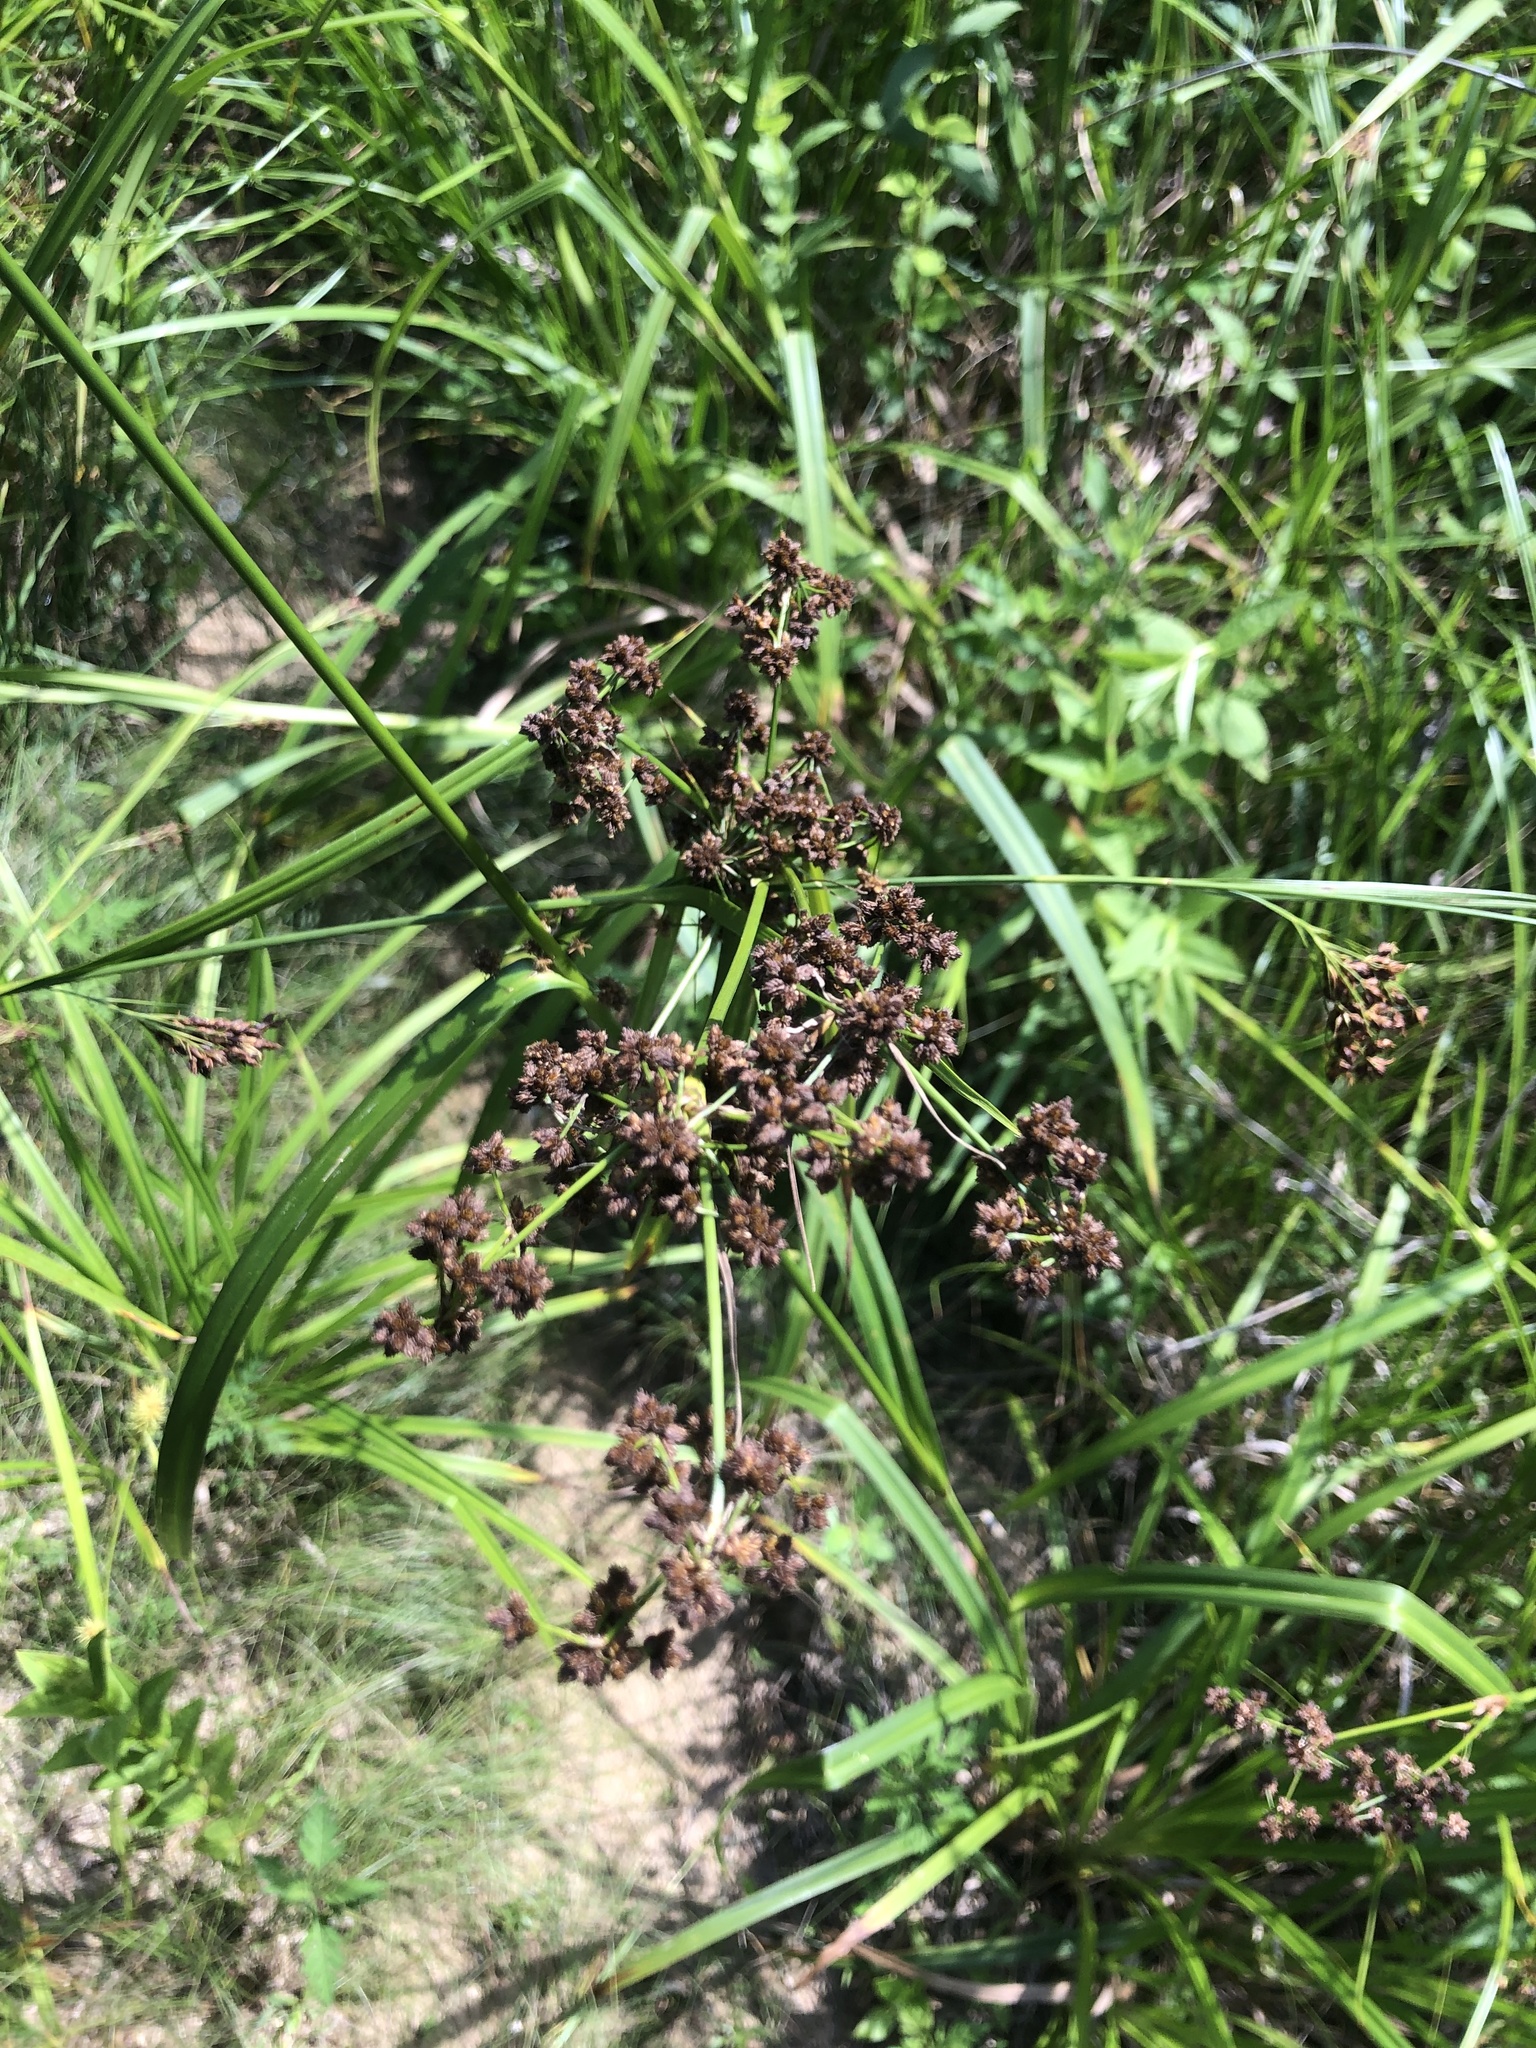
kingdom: Plantae
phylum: Tracheophyta
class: Liliopsida
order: Poales
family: Cyperaceae
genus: Scirpus
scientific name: Scirpus atrovirens
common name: Black bulrush
